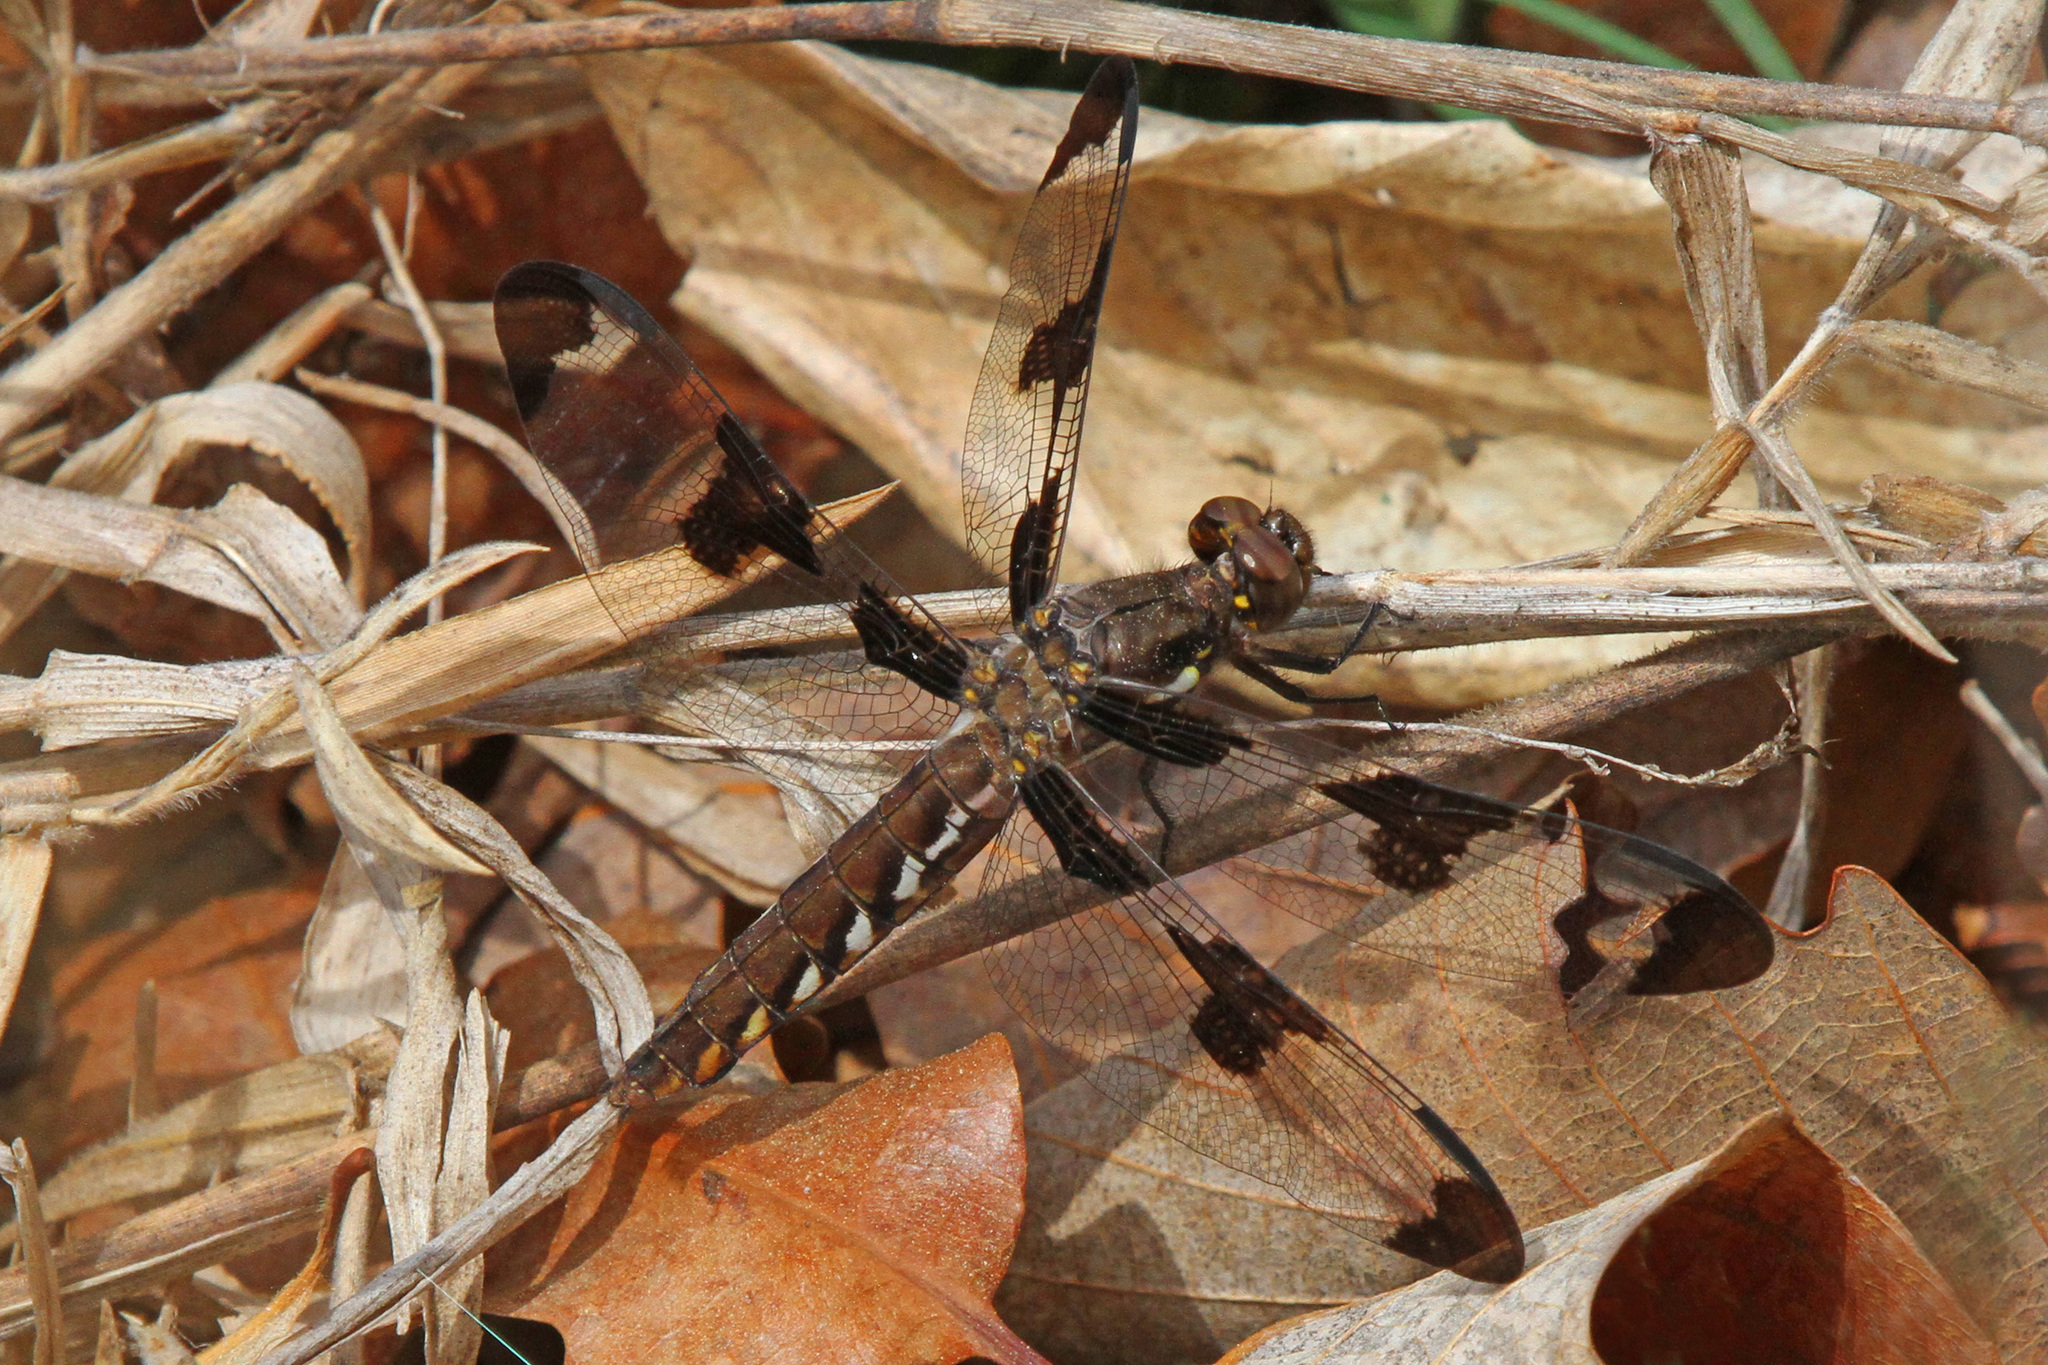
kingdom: Animalia
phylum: Arthropoda
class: Insecta
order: Odonata
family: Libellulidae
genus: Plathemis
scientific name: Plathemis lydia
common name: Common whitetail
